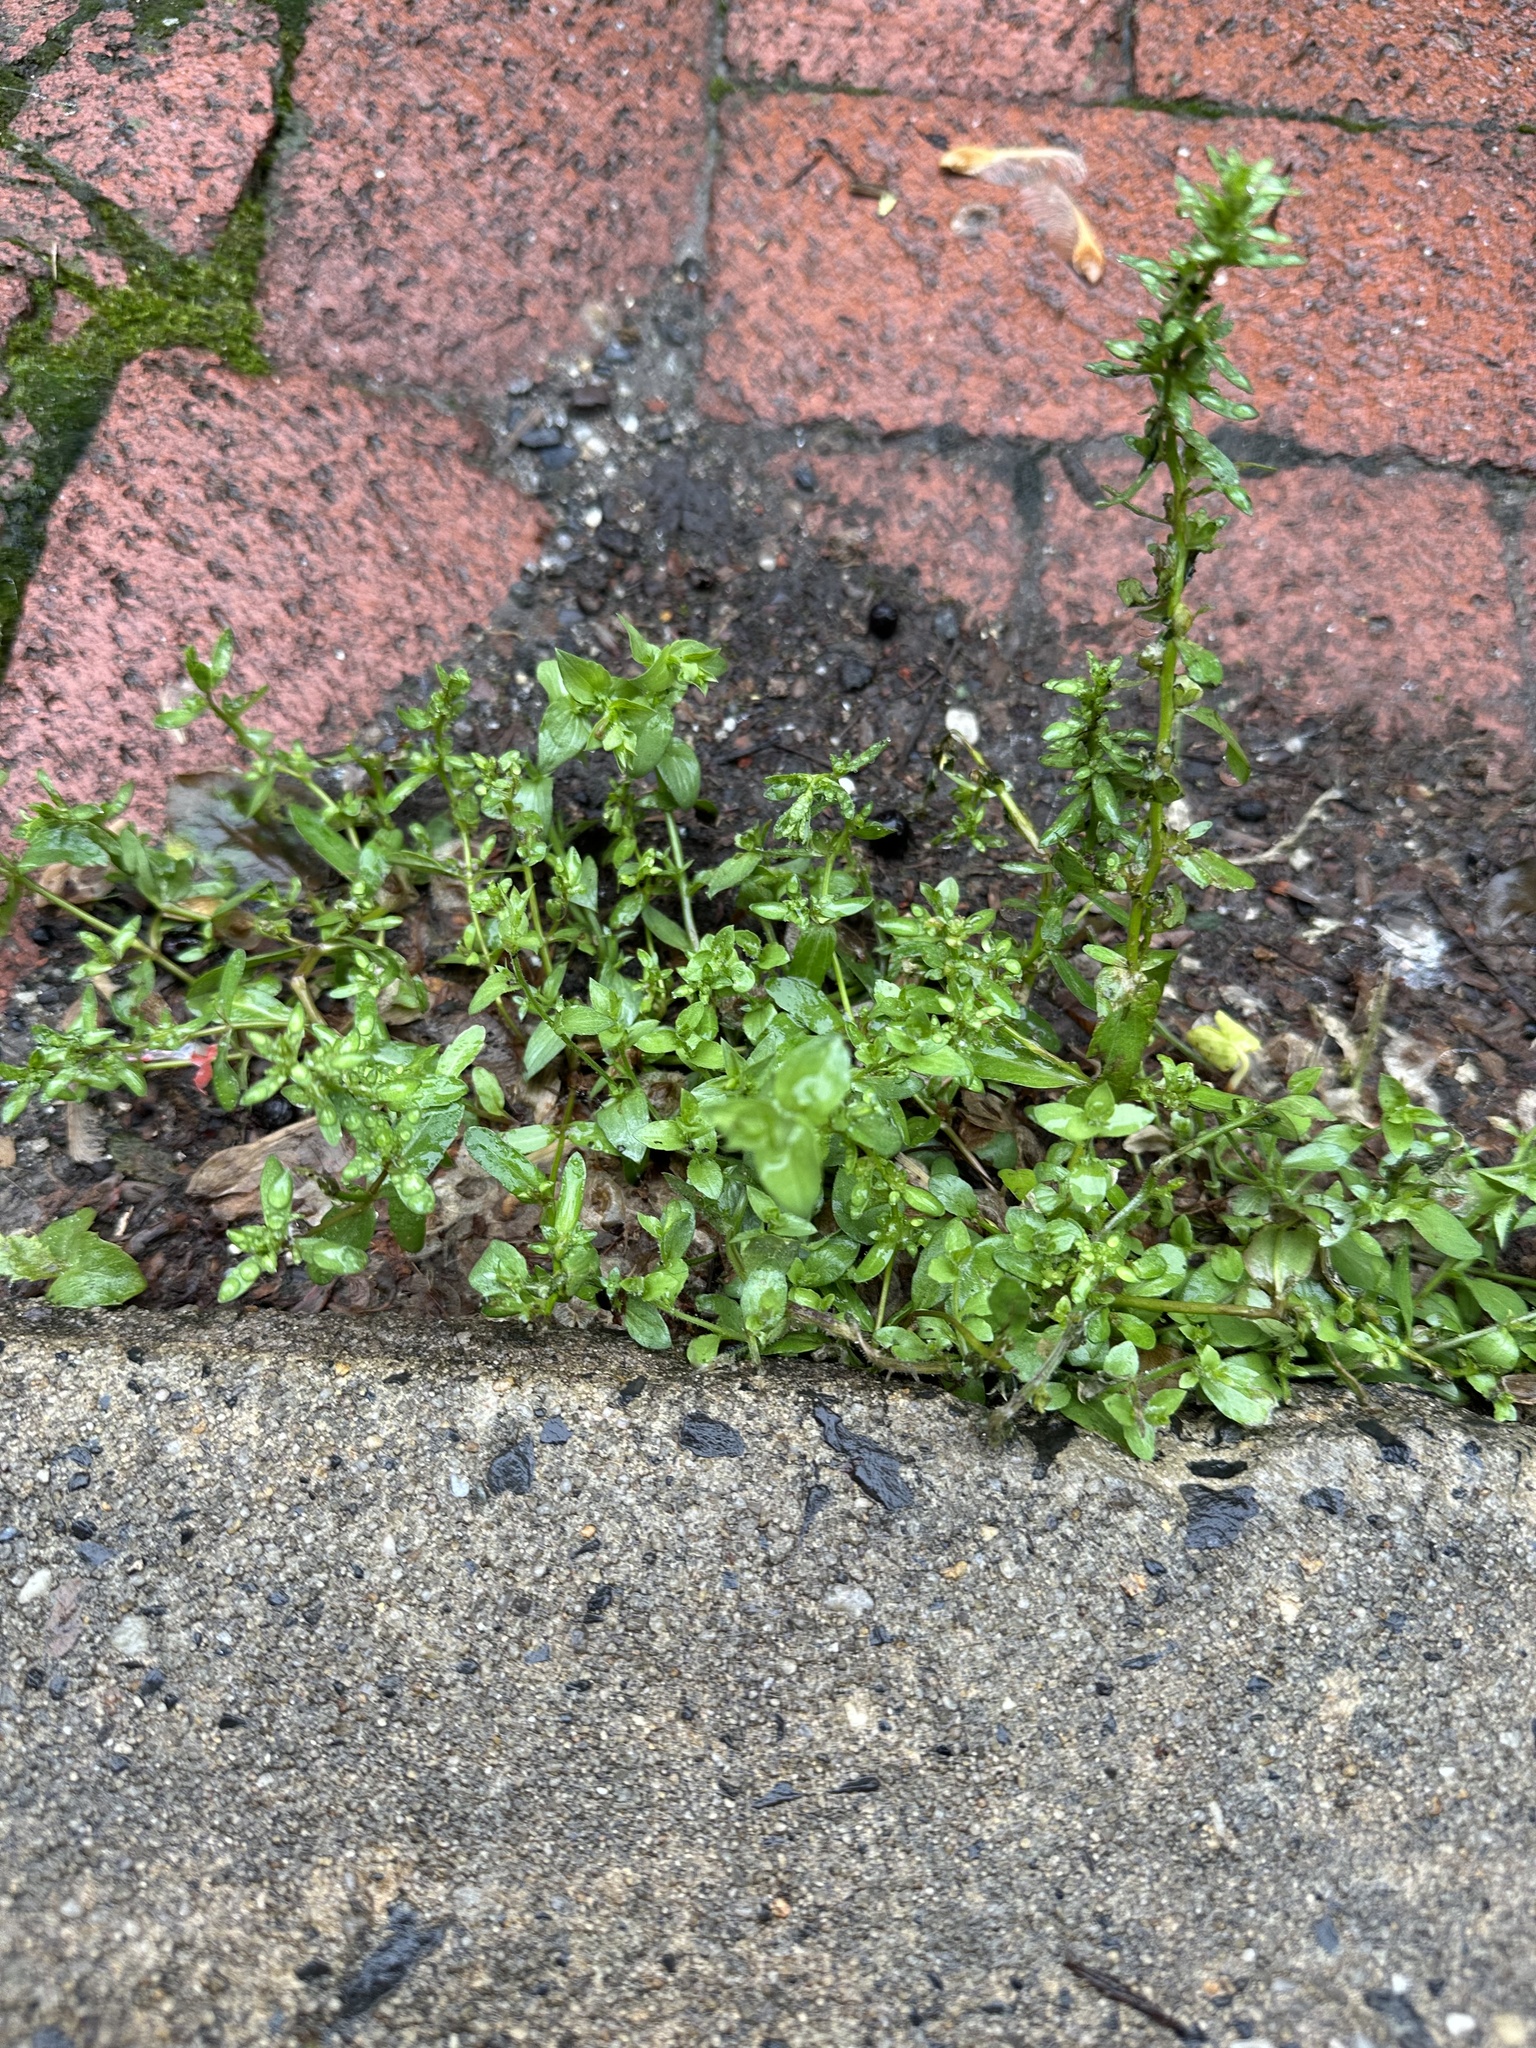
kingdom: Plantae
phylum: Tracheophyta
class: Magnoliopsida
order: Caryophyllales
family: Caryophyllaceae
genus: Stellaria
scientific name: Stellaria media
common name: Common chickweed
